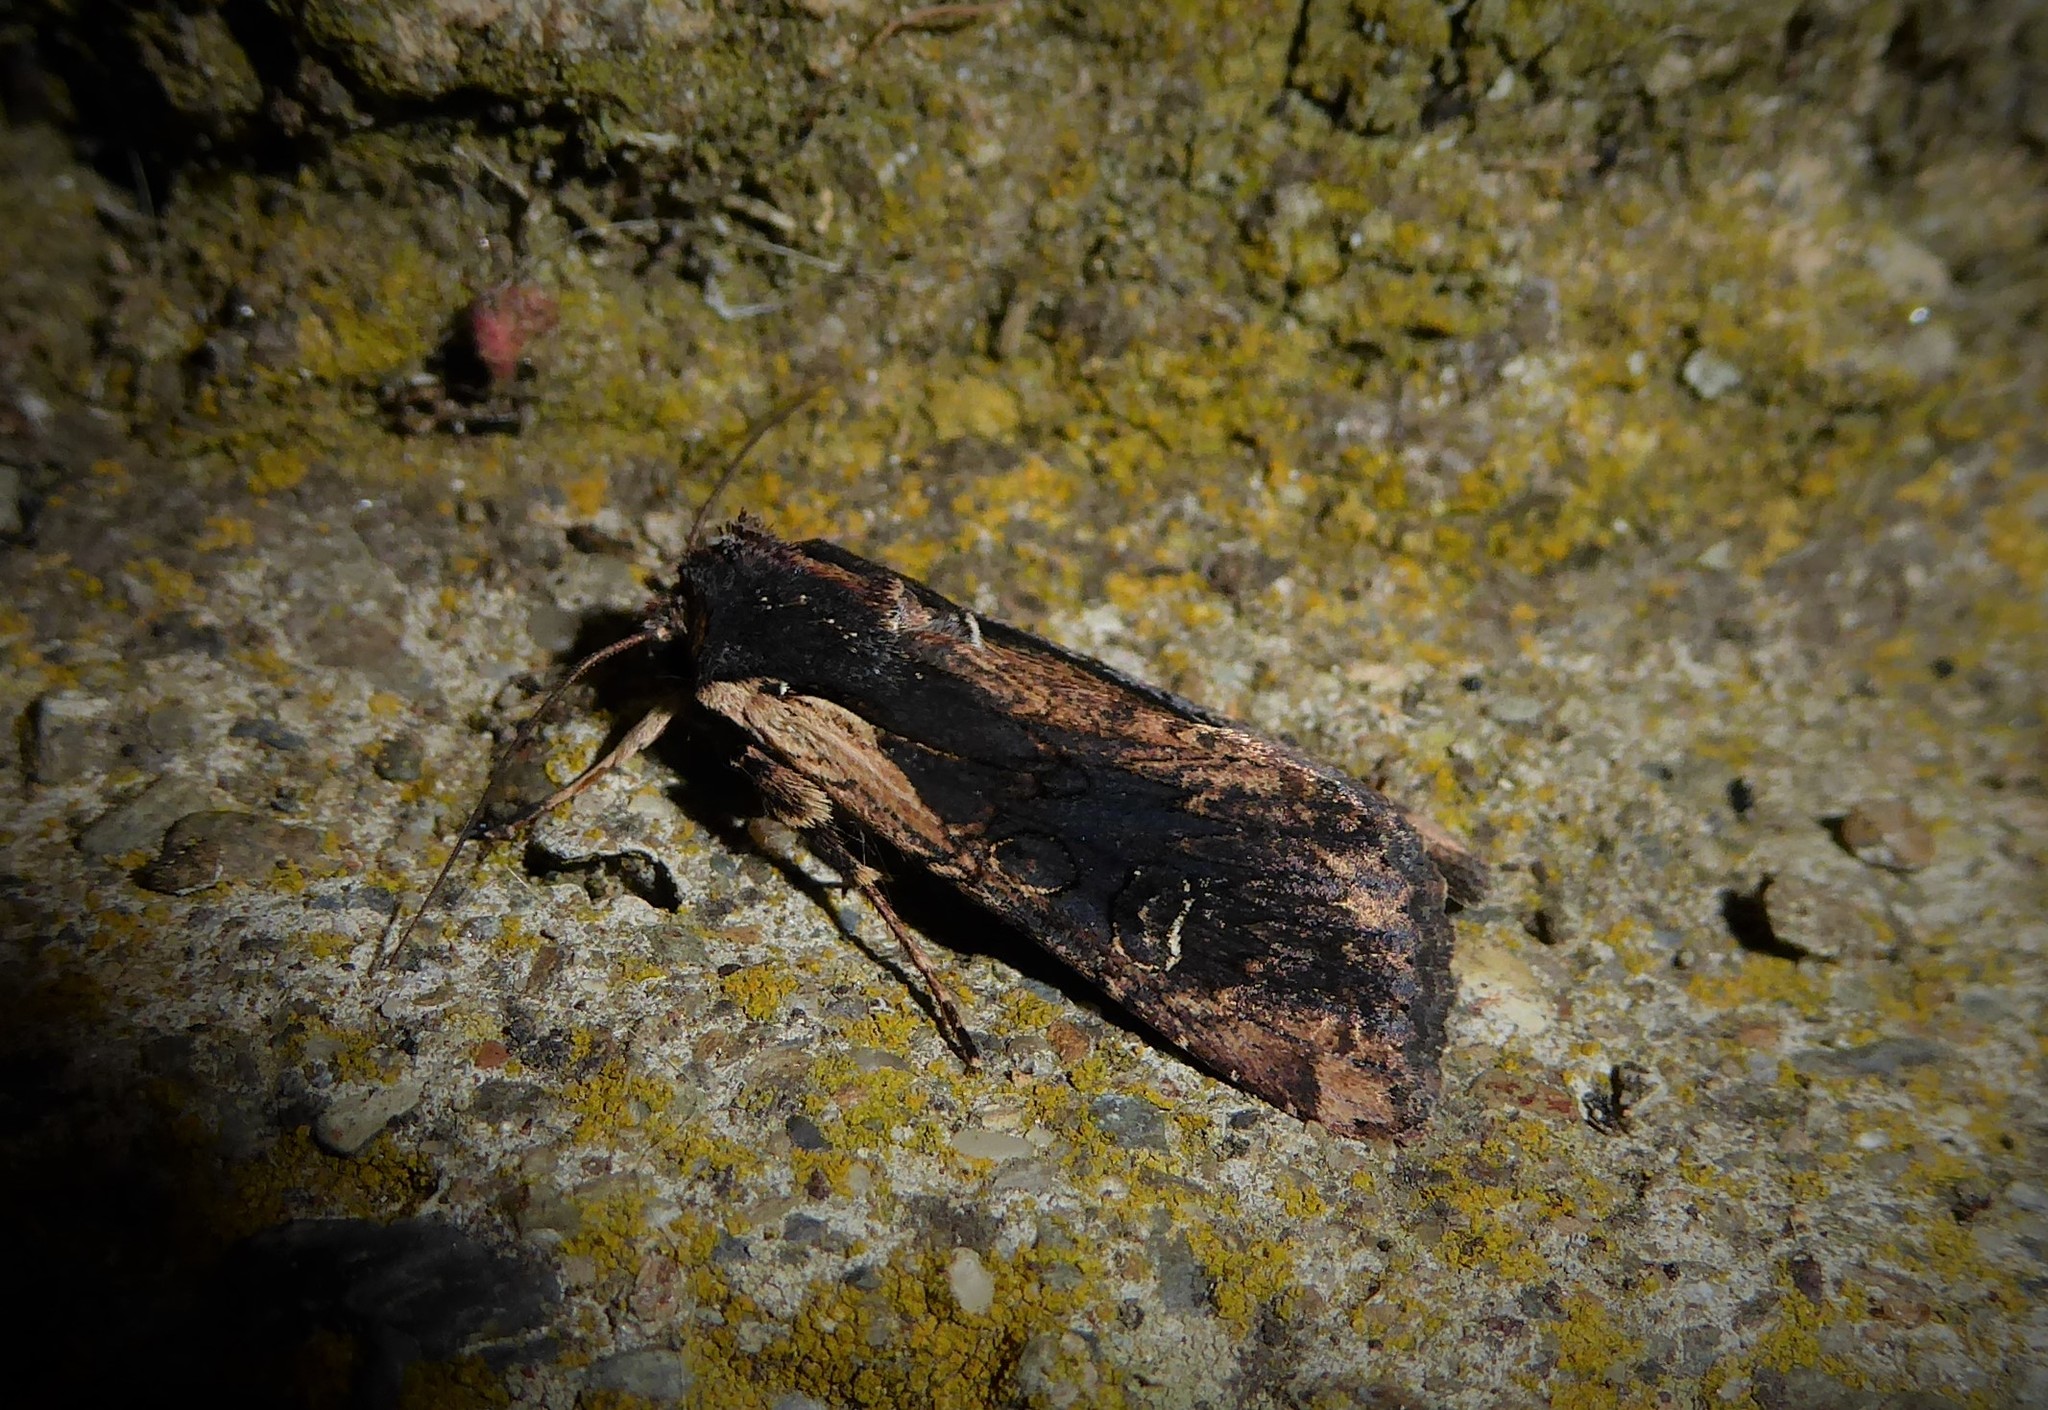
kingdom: Animalia
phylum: Arthropoda
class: Insecta
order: Lepidoptera
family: Noctuidae
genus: Ichneutica
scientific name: Ichneutica omoplaca
